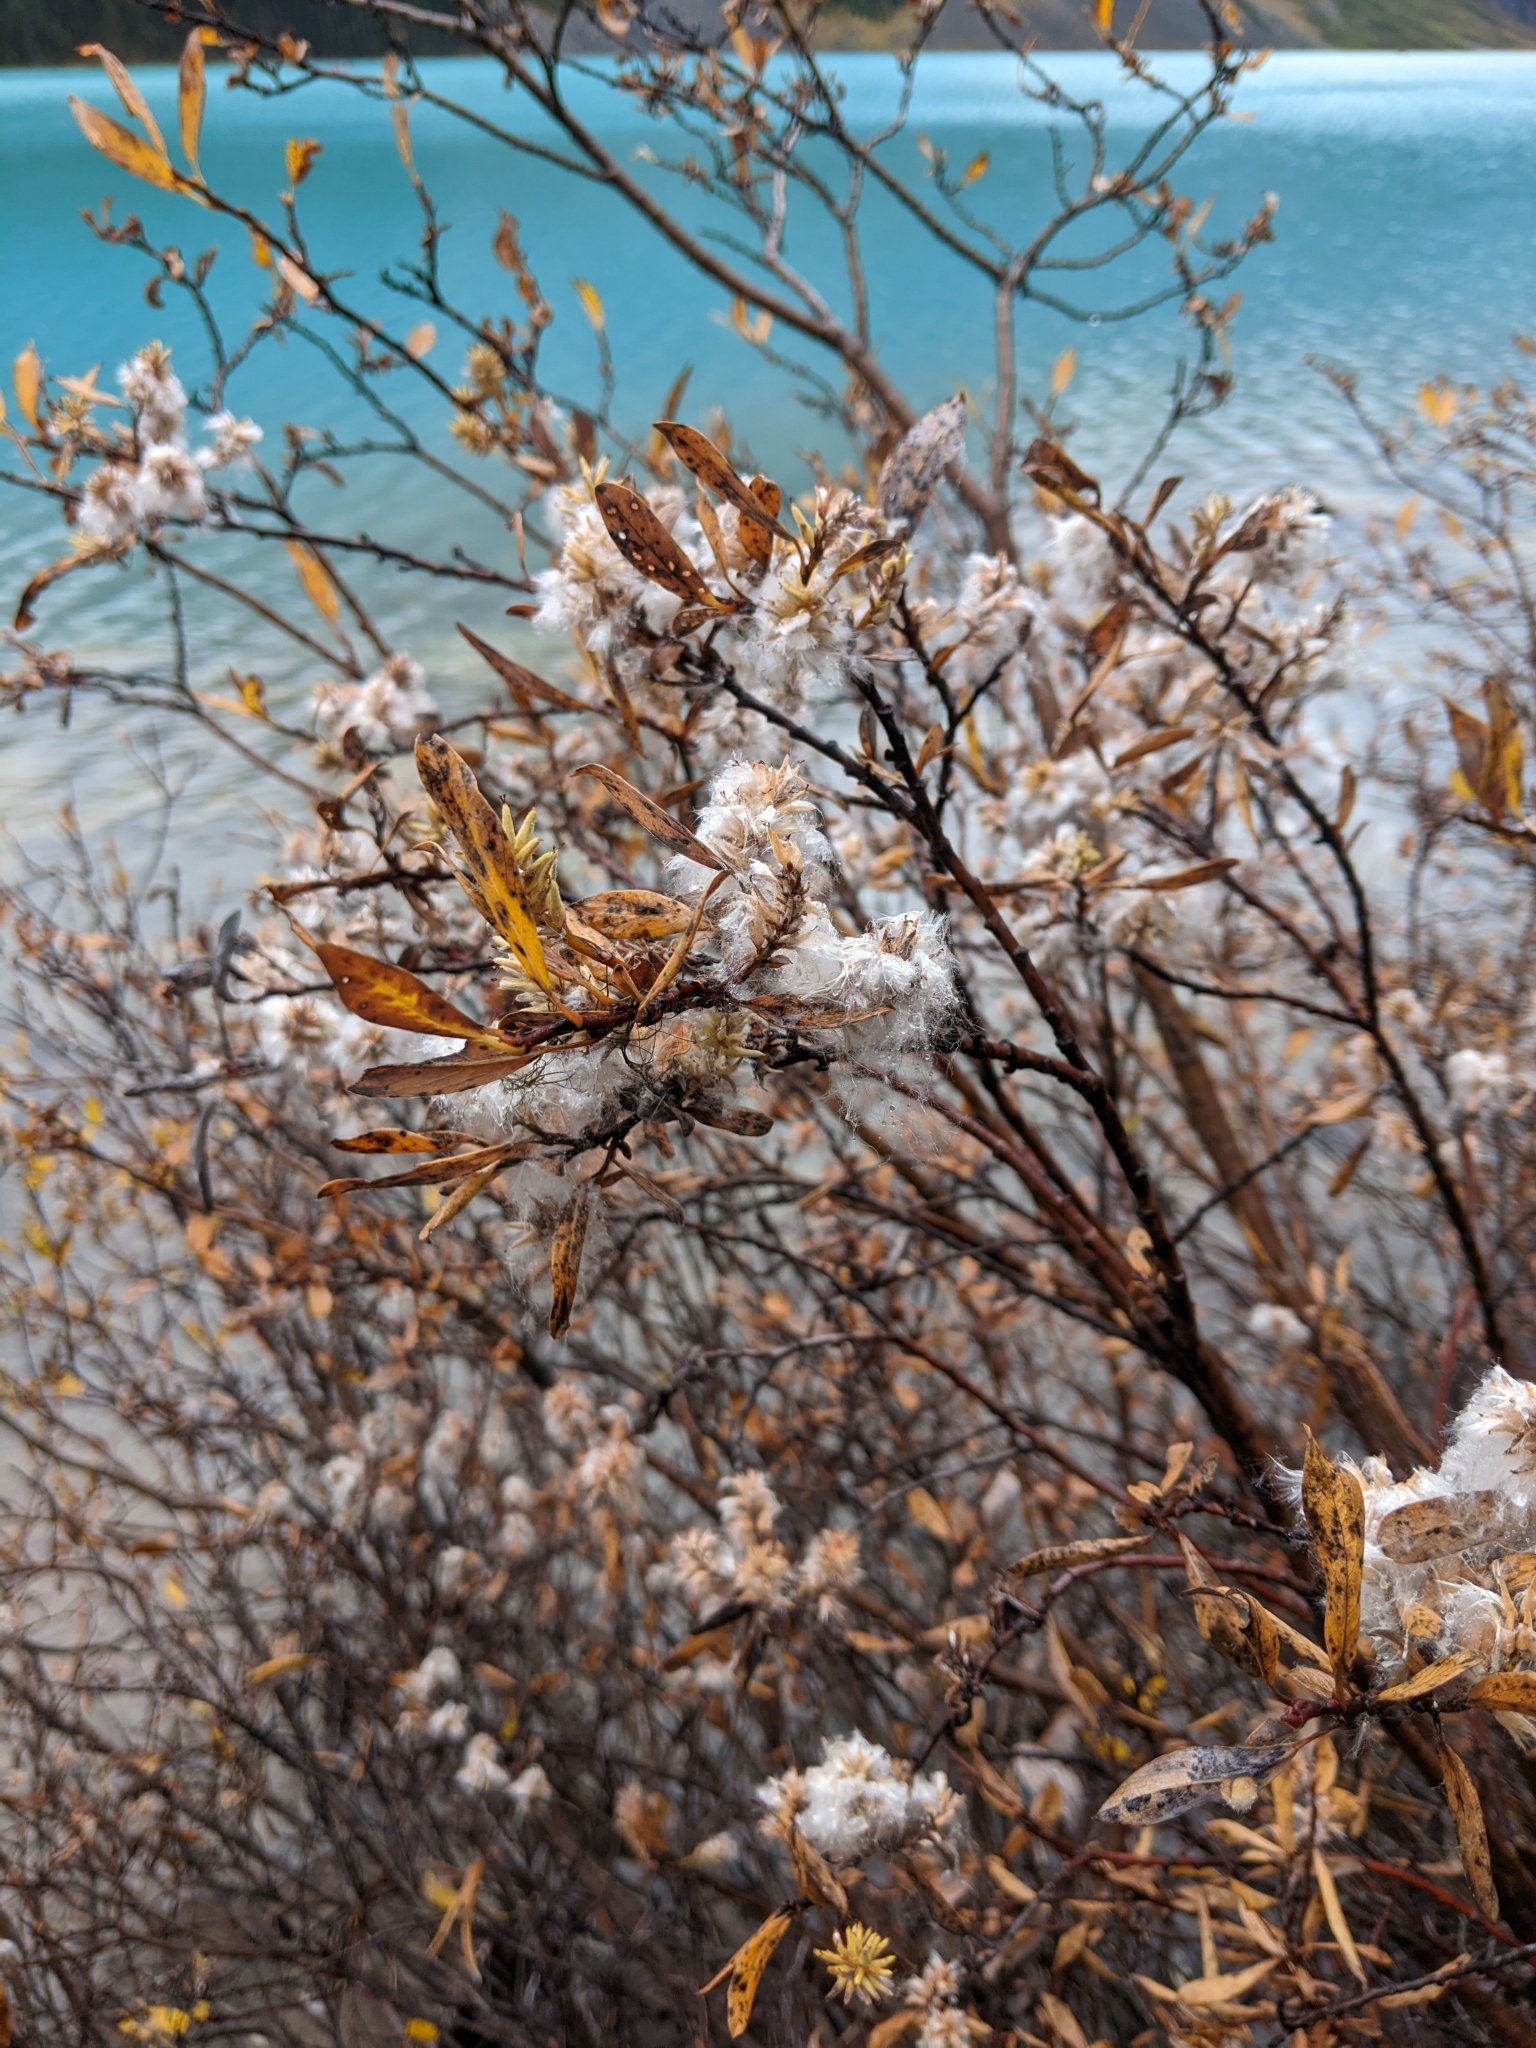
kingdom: Plantae
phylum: Tracheophyta
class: Magnoliopsida
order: Malpighiales
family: Salicaceae
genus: Salix
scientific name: Salix glauca
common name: Glaucous willow
